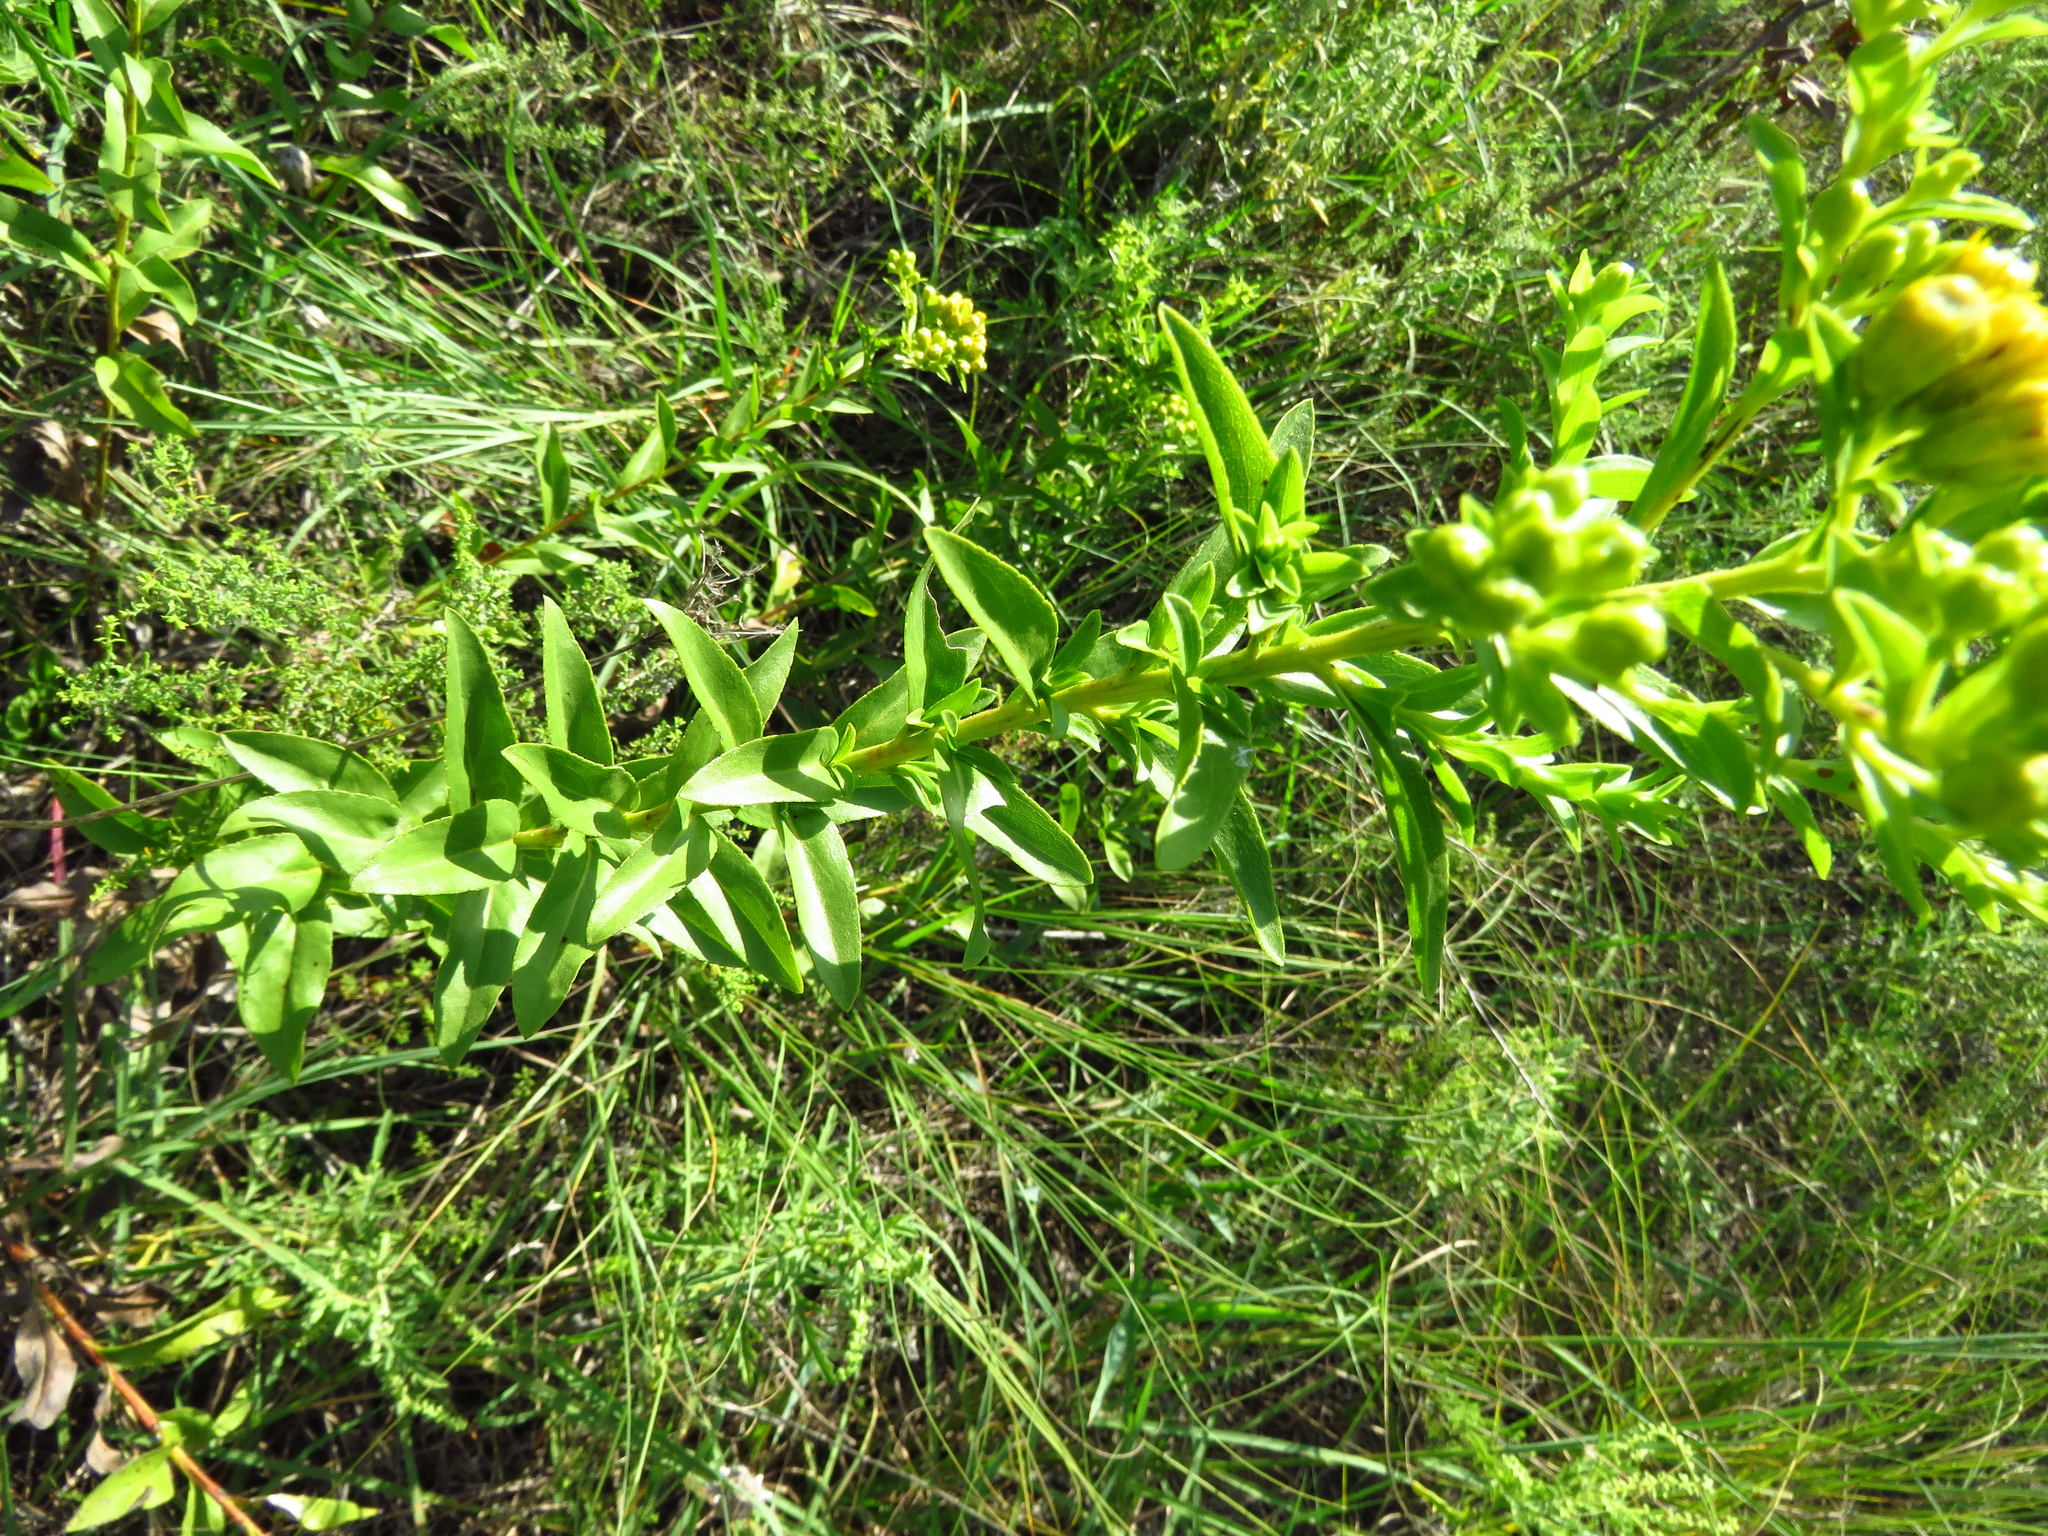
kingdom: Plantae
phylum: Tracheophyta
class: Magnoliopsida
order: Asterales
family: Asteraceae
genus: Solidago
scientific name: Solidago rigida
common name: Rigid goldenrod
